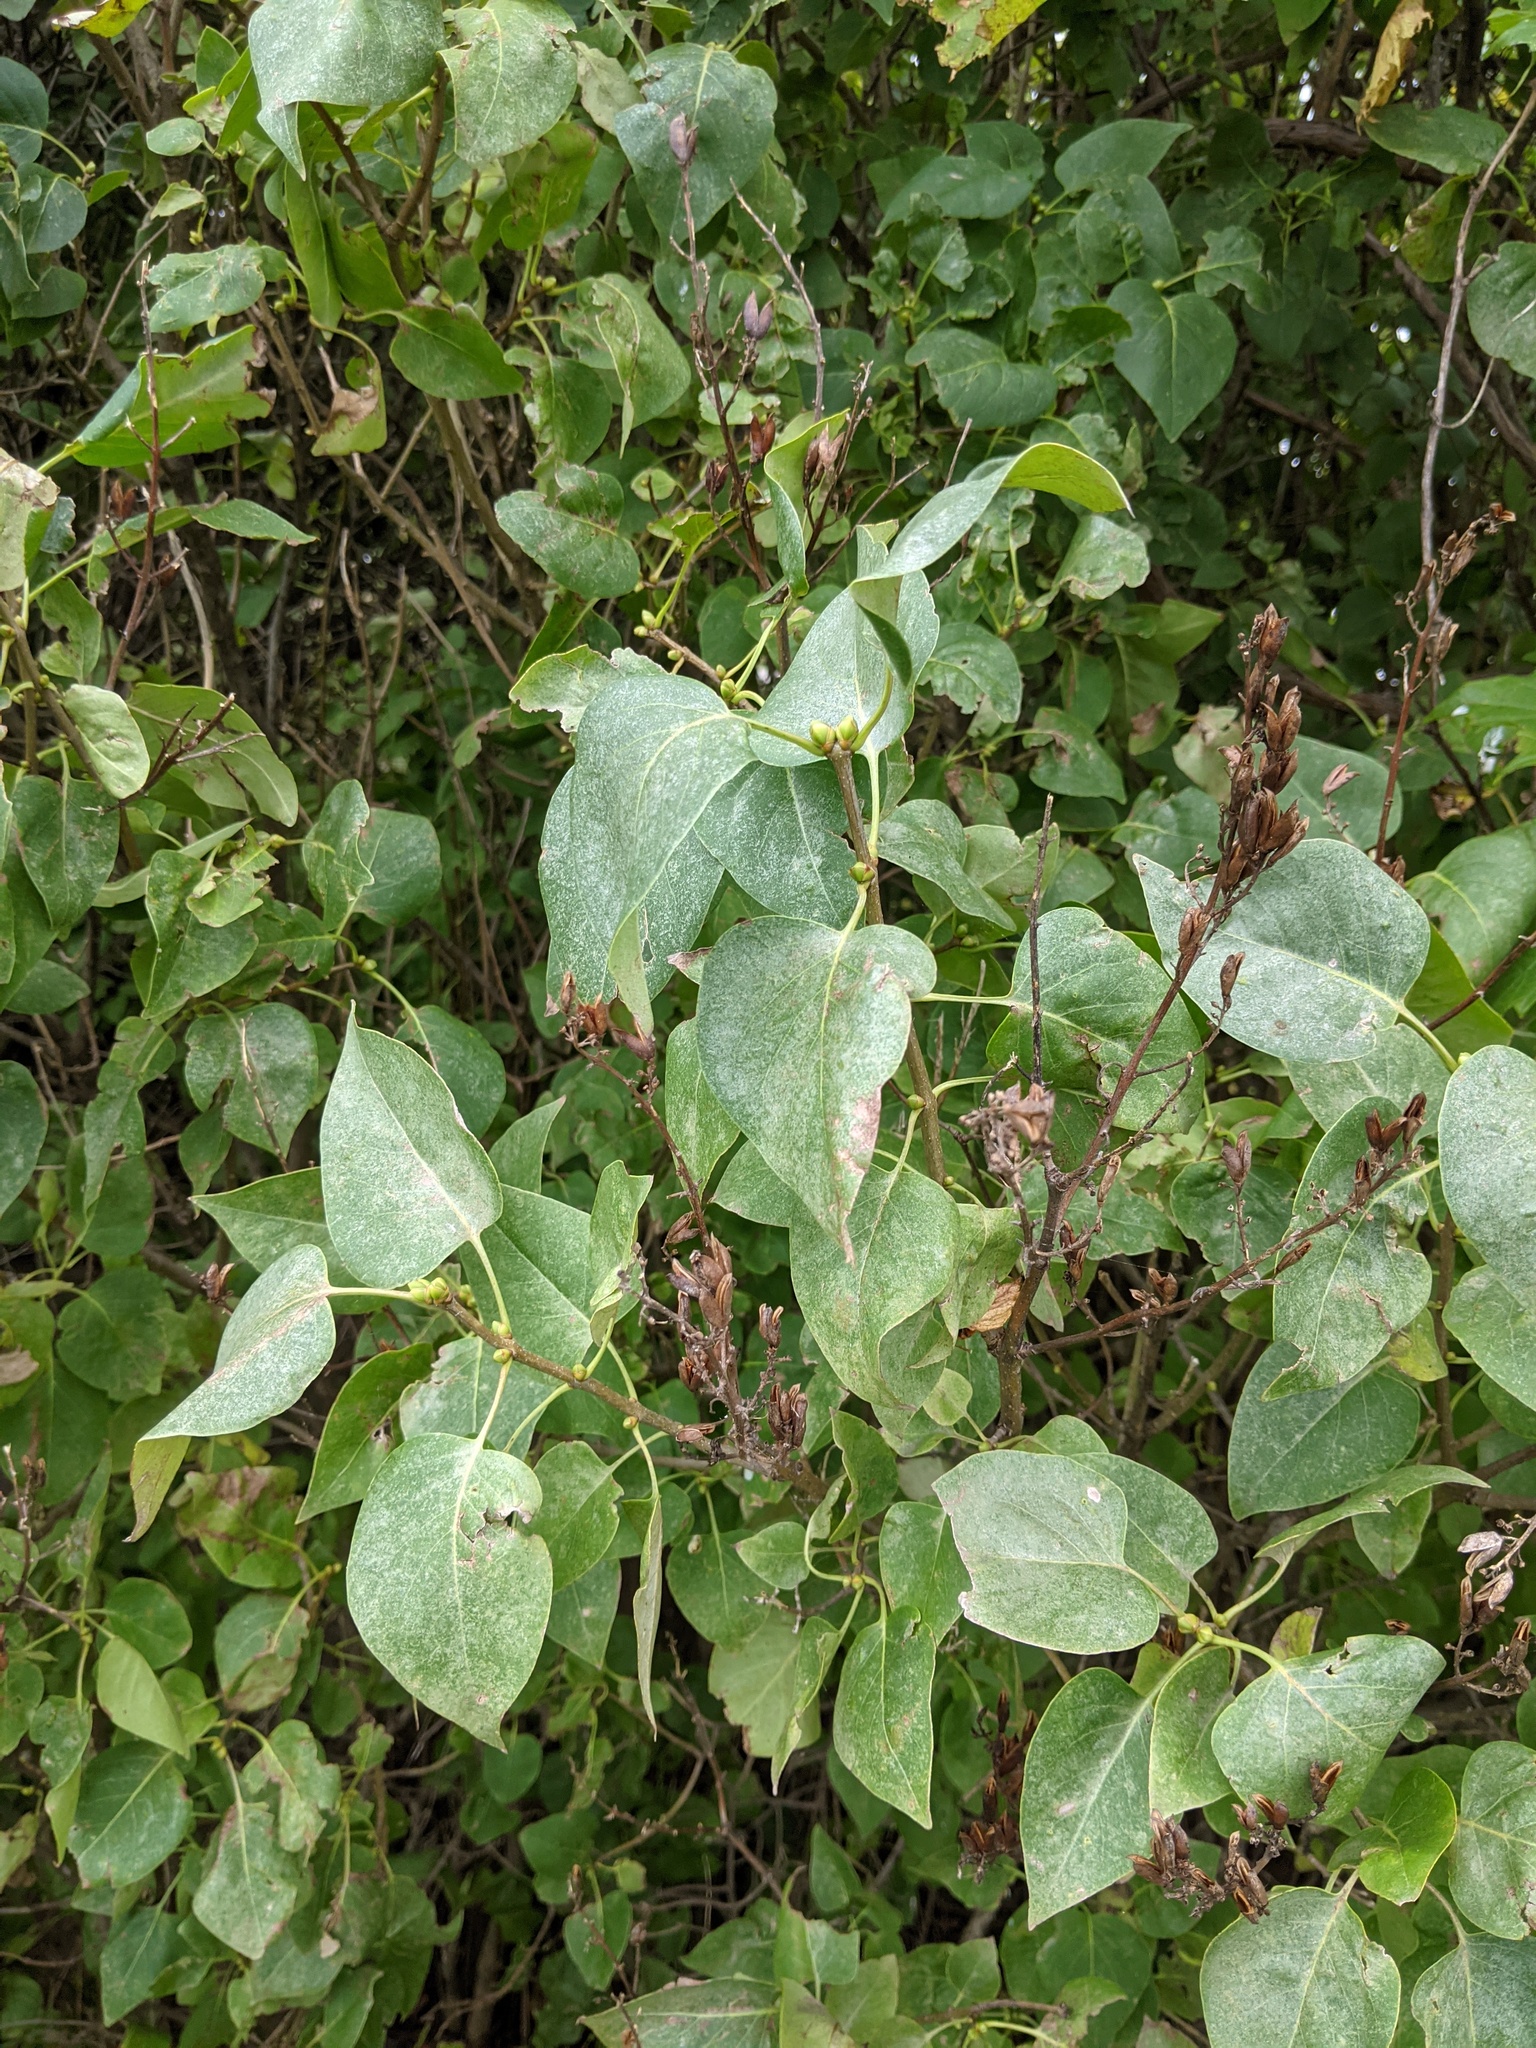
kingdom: Plantae
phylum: Tracheophyta
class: Magnoliopsida
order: Lamiales
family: Oleaceae
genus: Syringa
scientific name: Syringa vulgaris
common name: Common lilac
